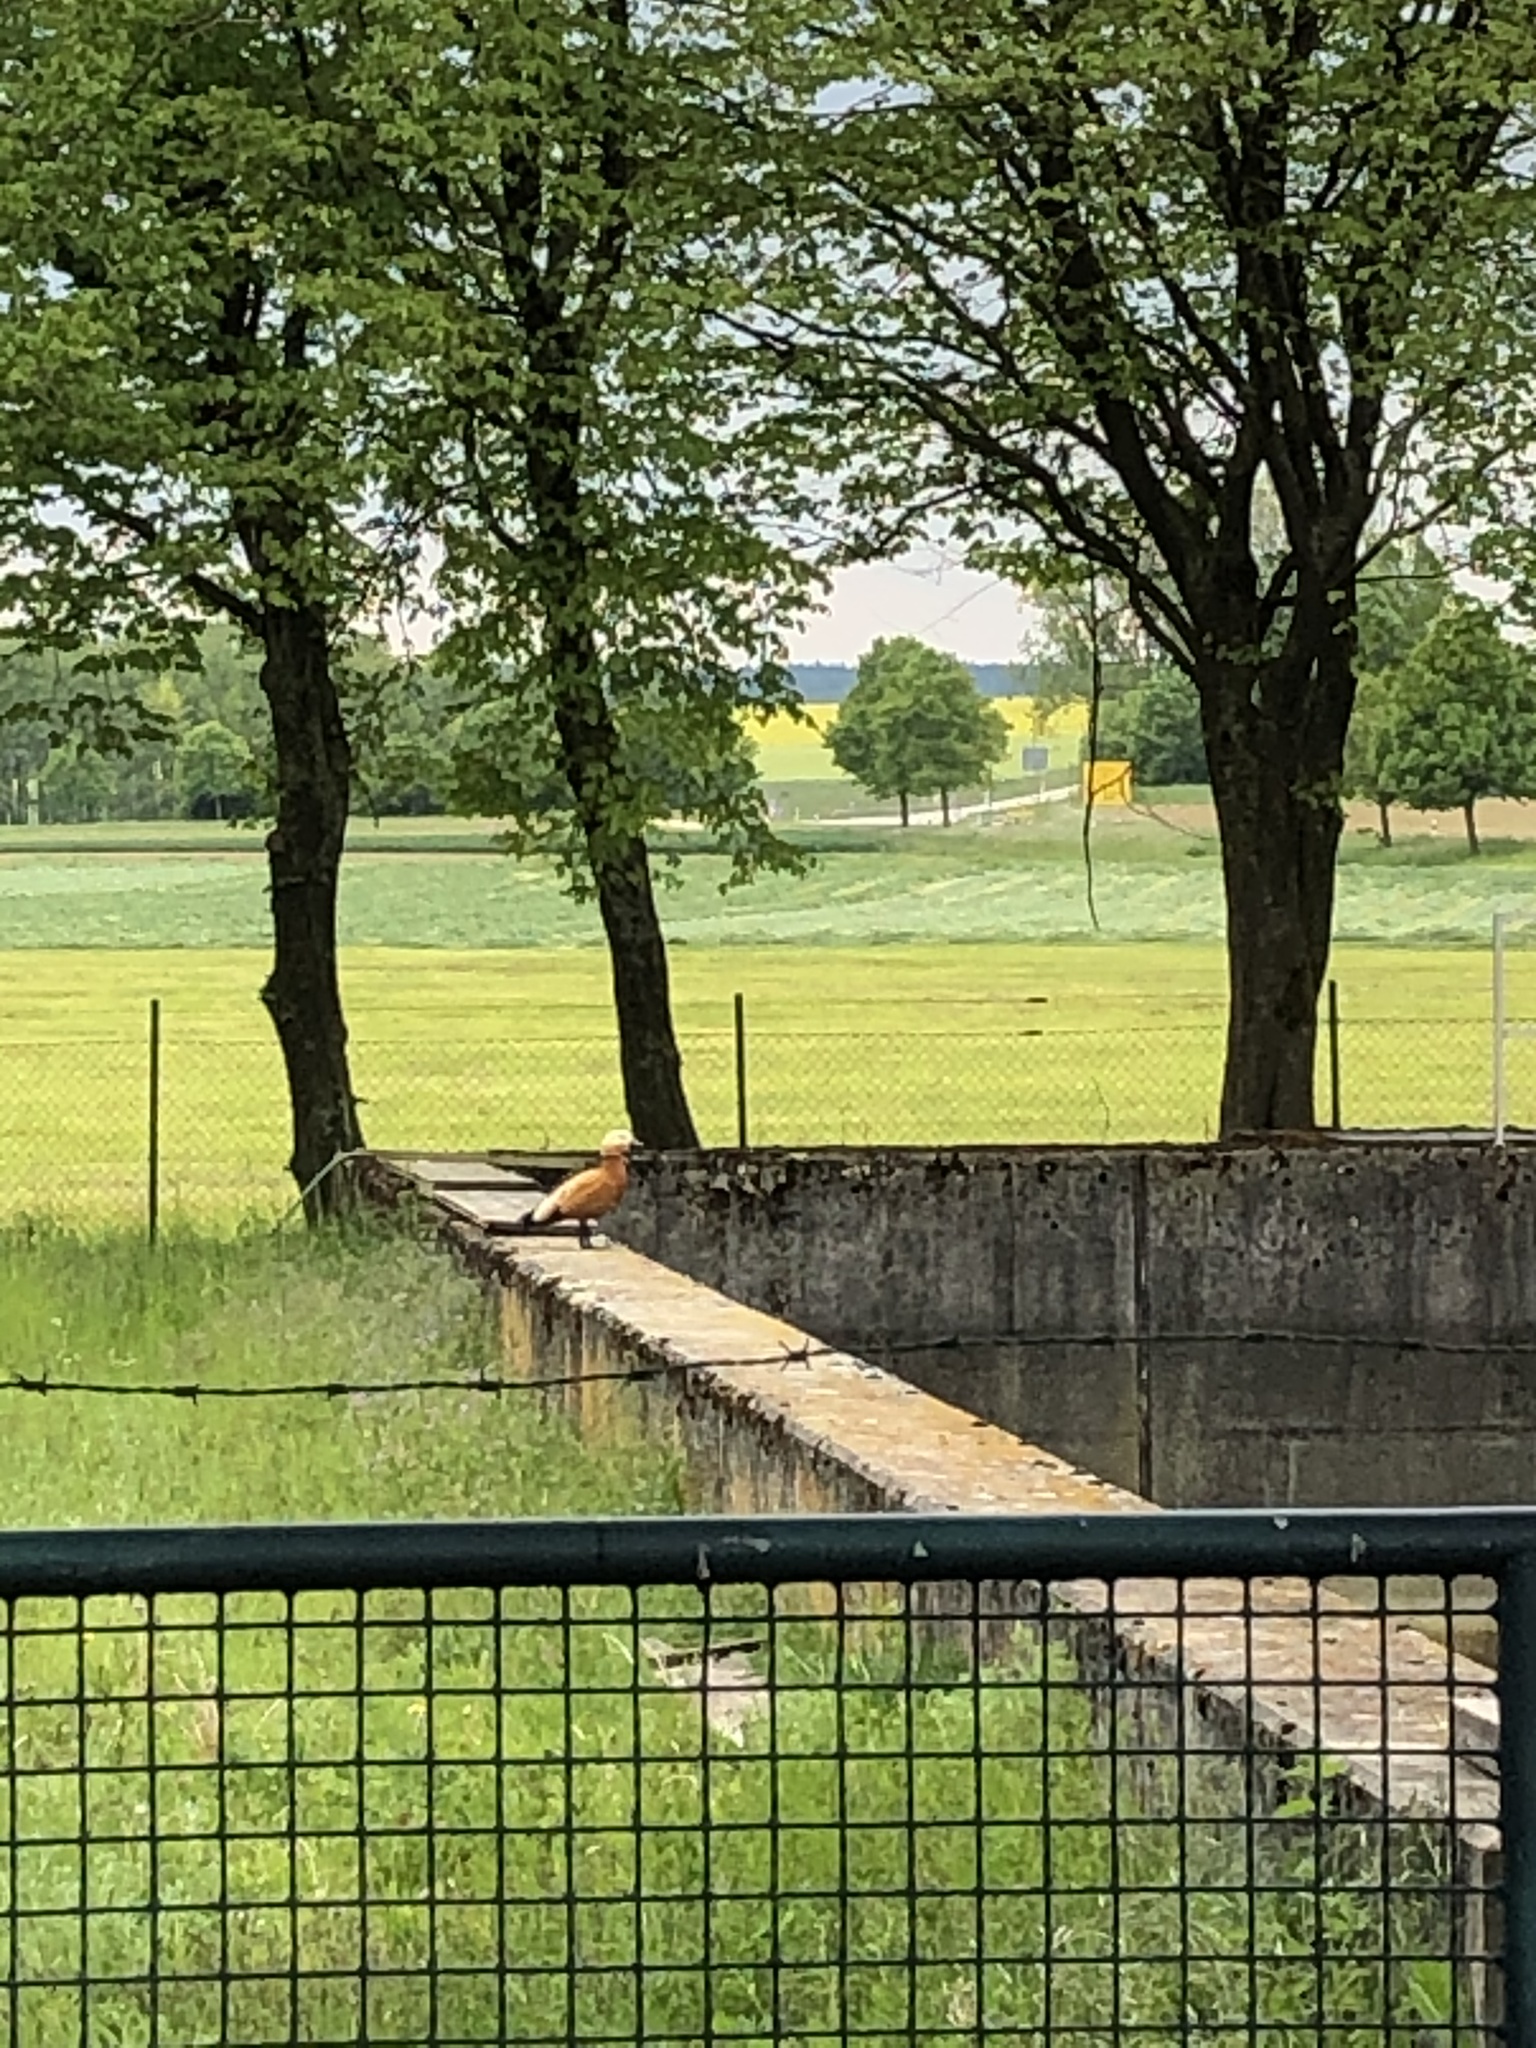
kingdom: Animalia
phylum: Chordata
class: Aves
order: Anseriformes
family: Anatidae
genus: Tadorna
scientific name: Tadorna ferruginea
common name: Ruddy shelduck
